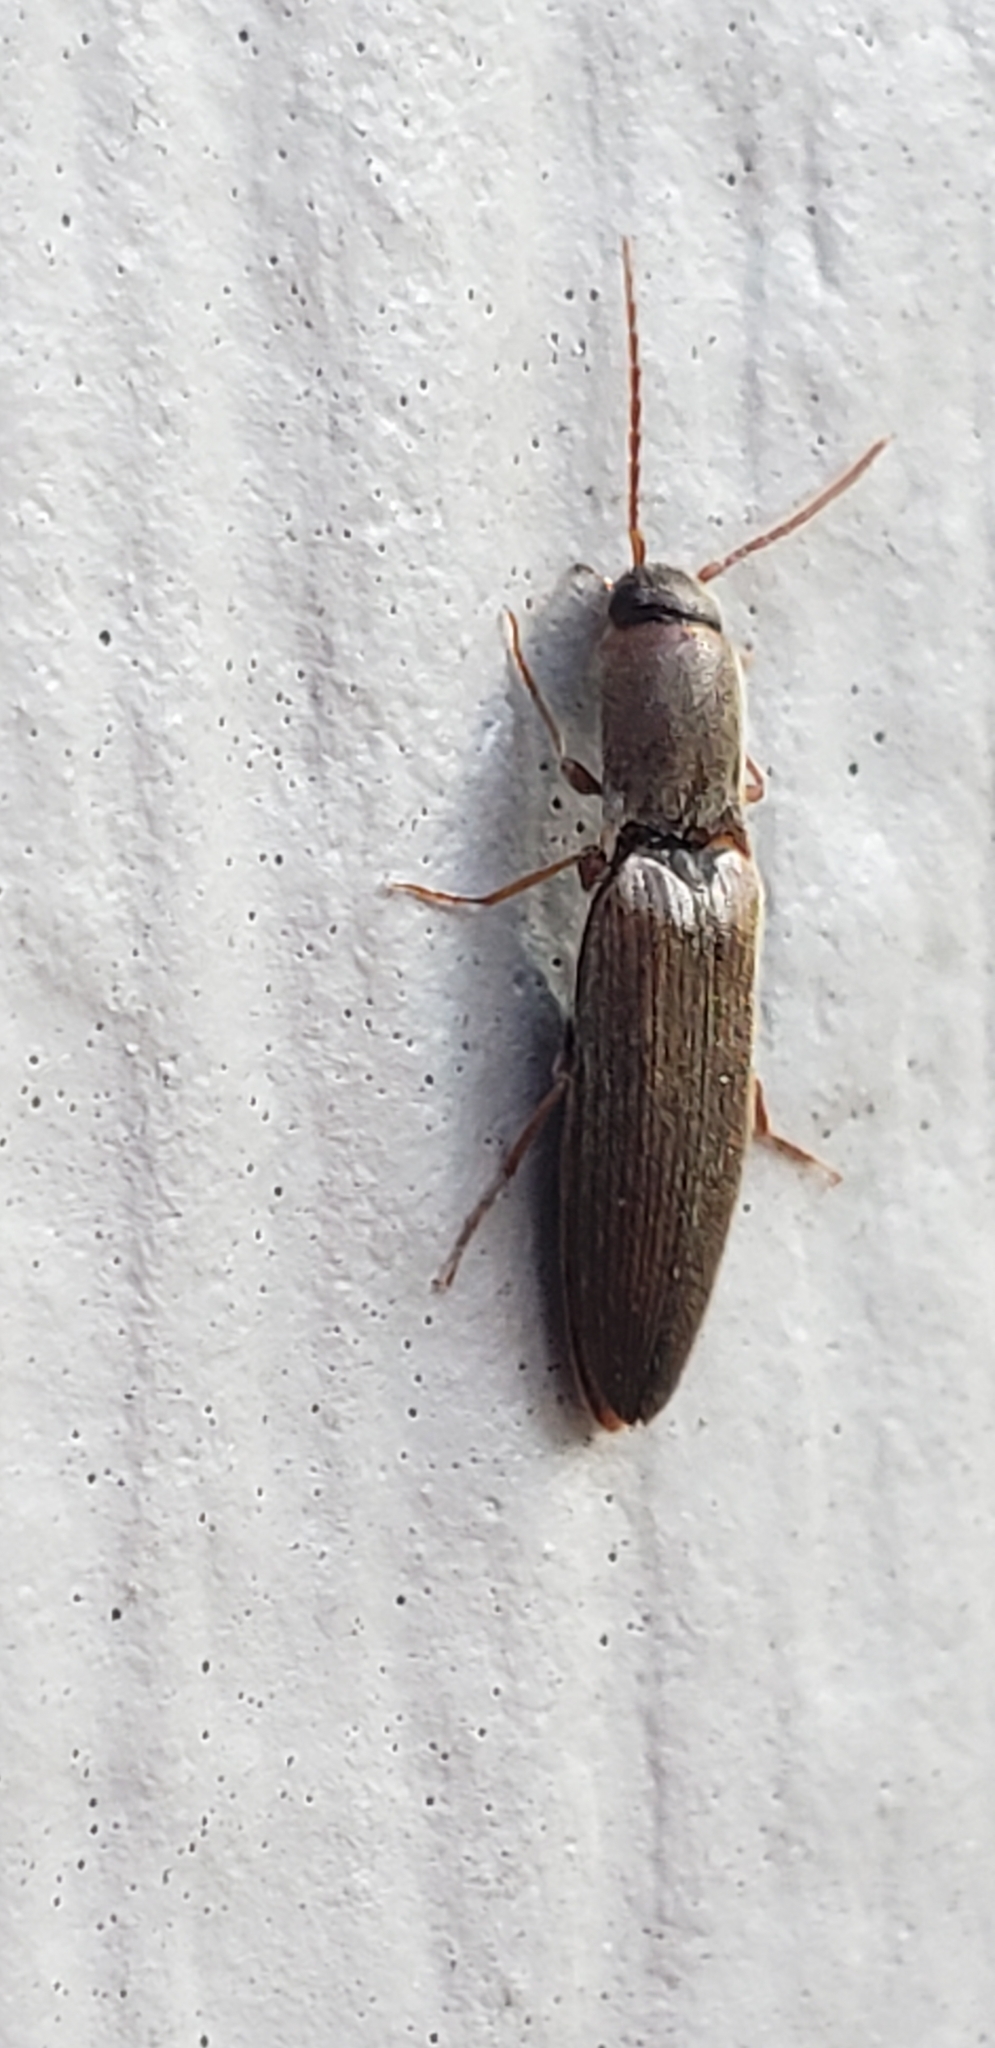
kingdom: Animalia
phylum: Arthropoda
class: Insecta
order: Coleoptera
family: Elateridae
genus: Sylvanelater
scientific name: Sylvanelater cylindriformis
